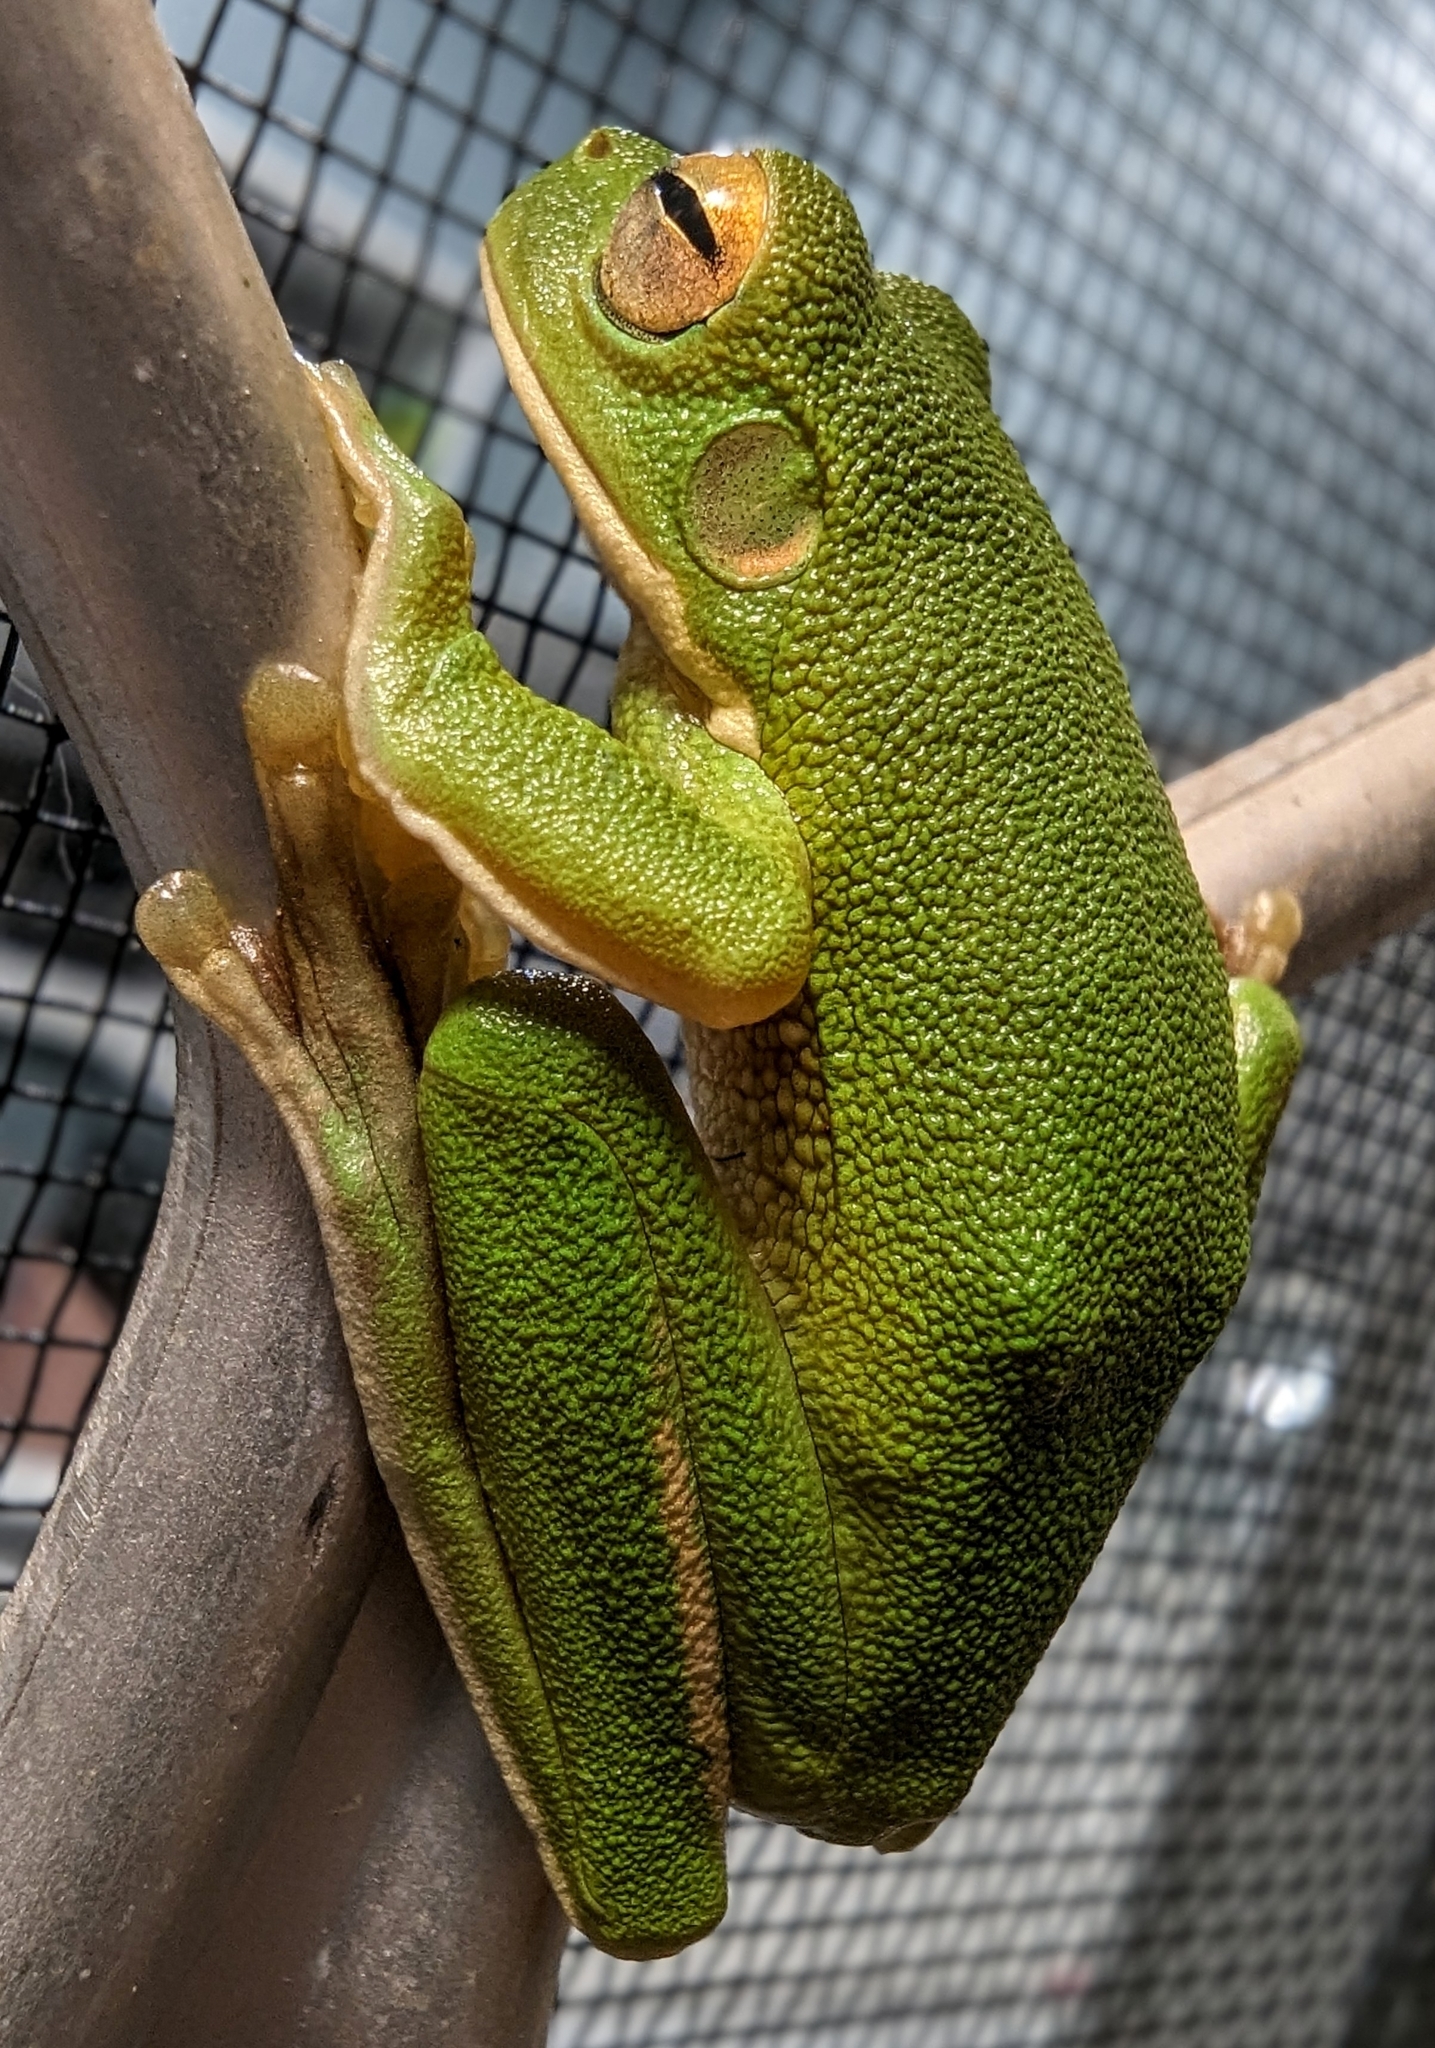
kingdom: Animalia
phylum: Chordata
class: Amphibia
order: Anura
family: Pelodryadidae
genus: Nyctimystes
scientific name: Nyctimystes infrafrenatus
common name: Australian giant treefrog
